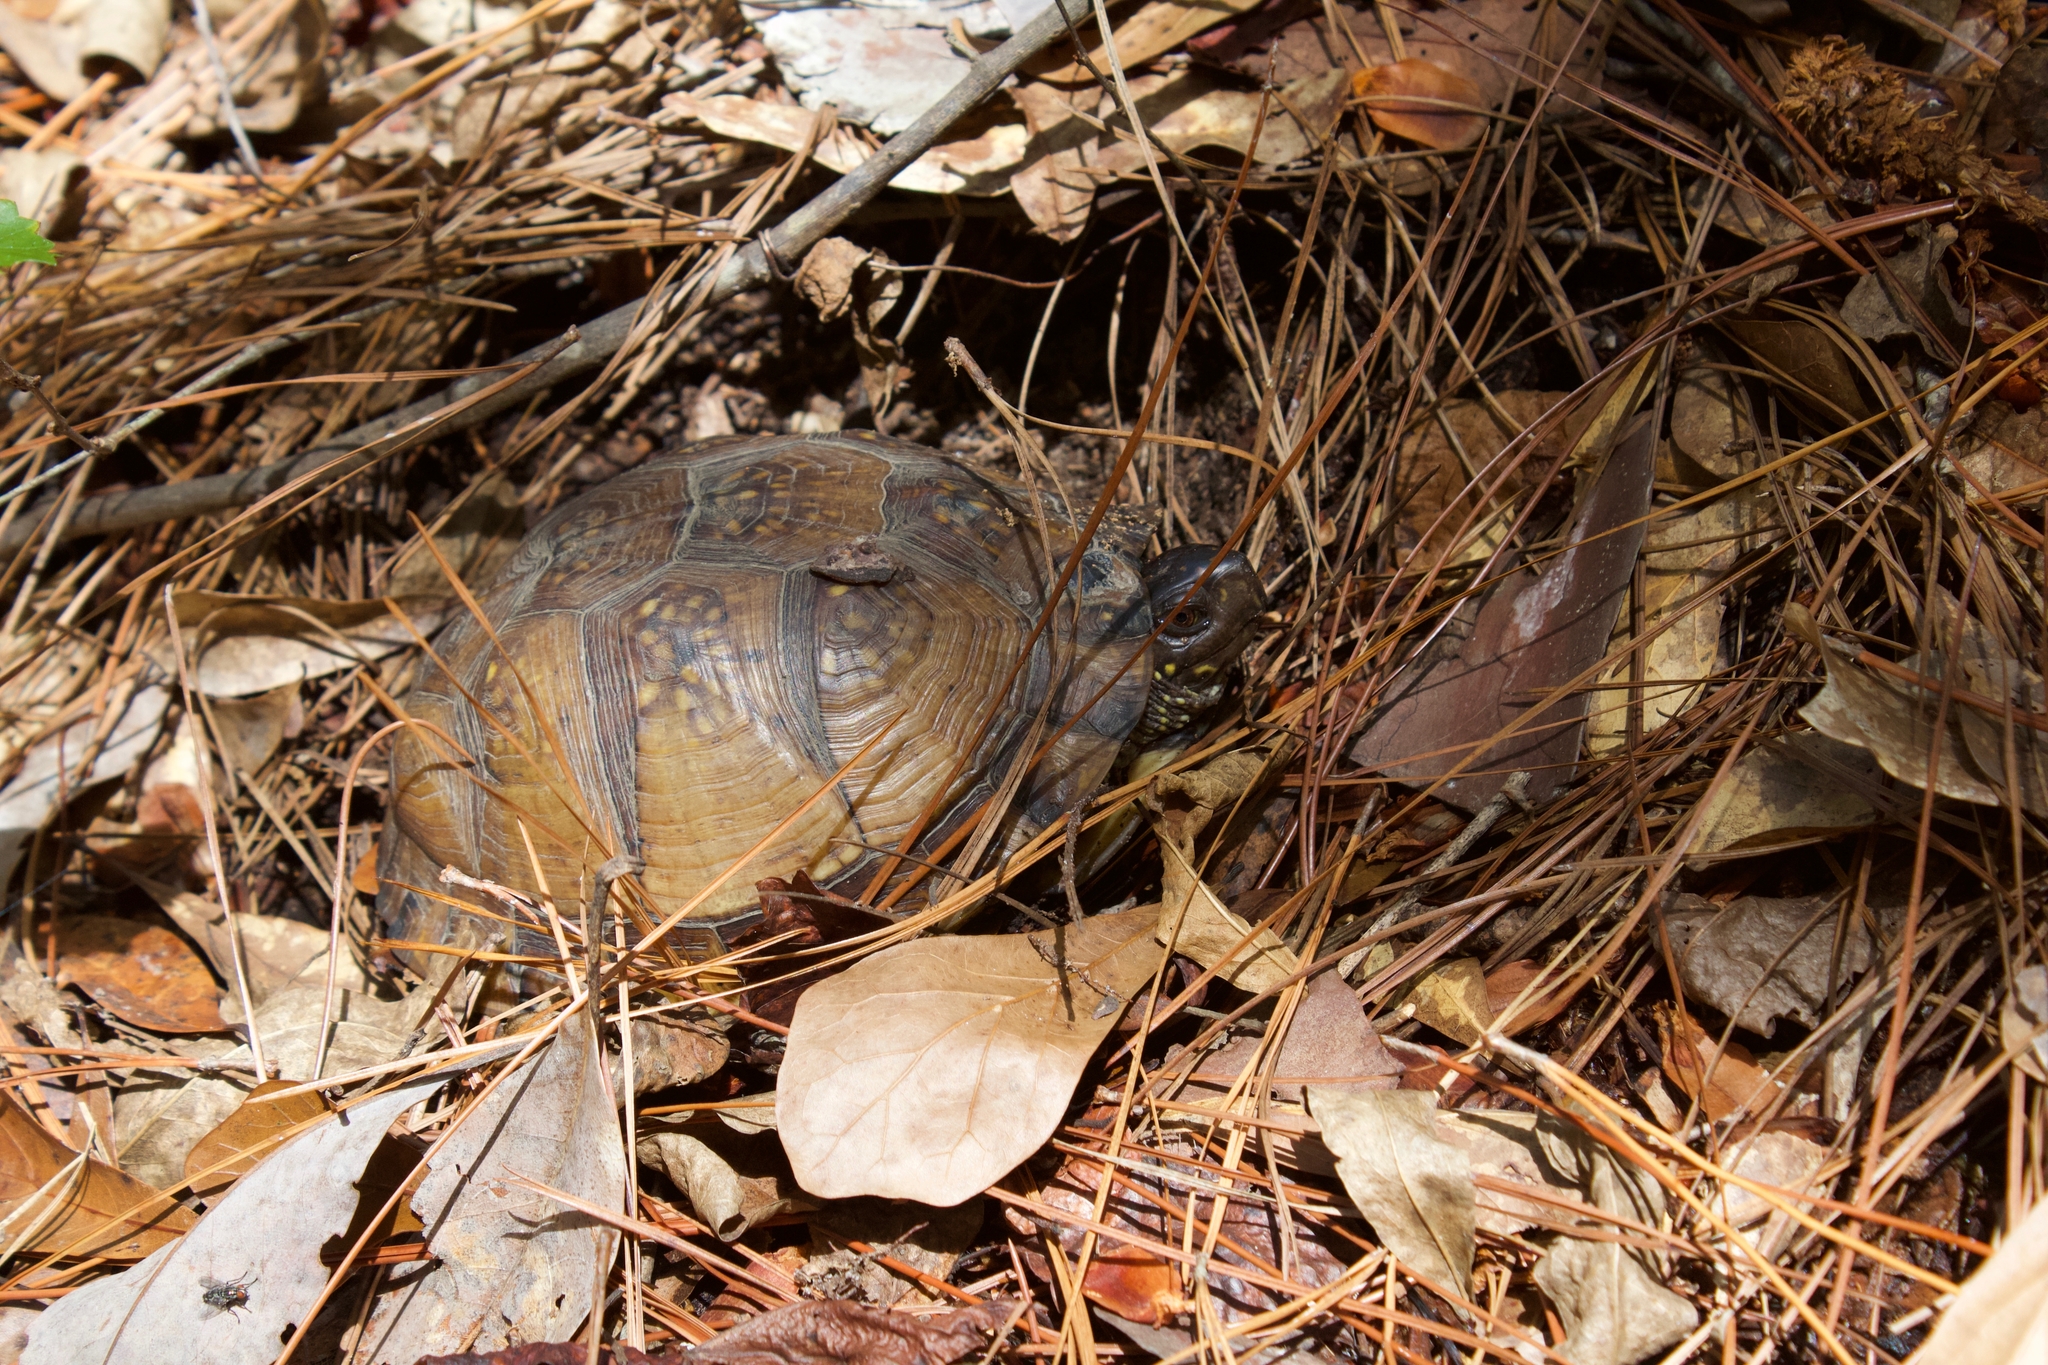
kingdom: Animalia
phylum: Chordata
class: Testudines
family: Emydidae
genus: Terrapene
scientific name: Terrapene carolina
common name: Common box turtle
